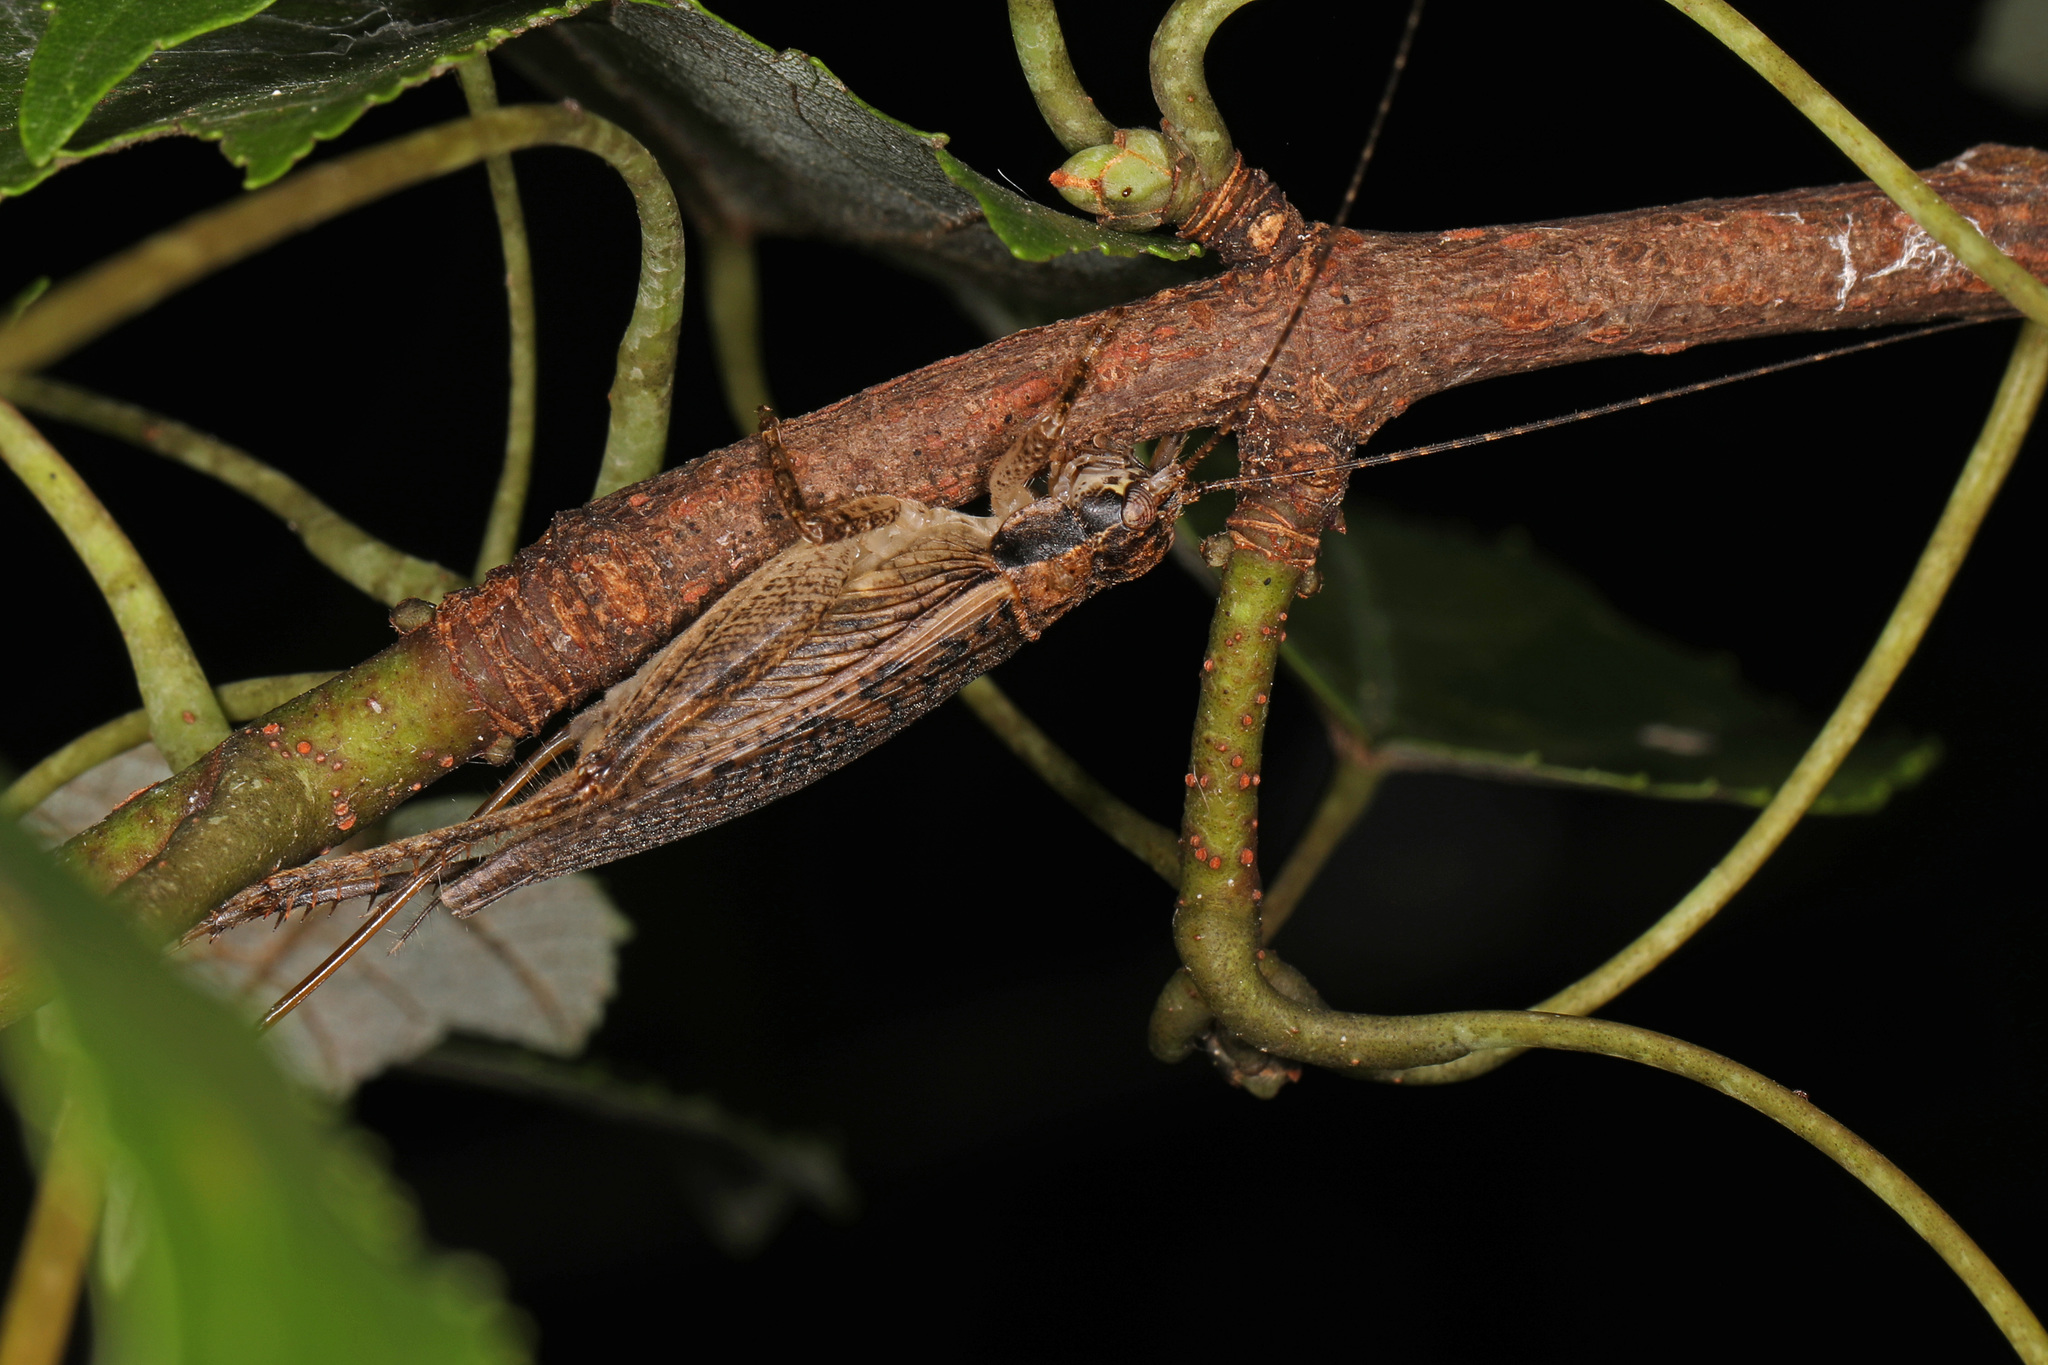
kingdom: Animalia
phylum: Arthropoda
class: Insecta
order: Orthoptera
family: Gryllidae
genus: Hapithus
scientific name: Hapithus saltator
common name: Jumping bush cricket
